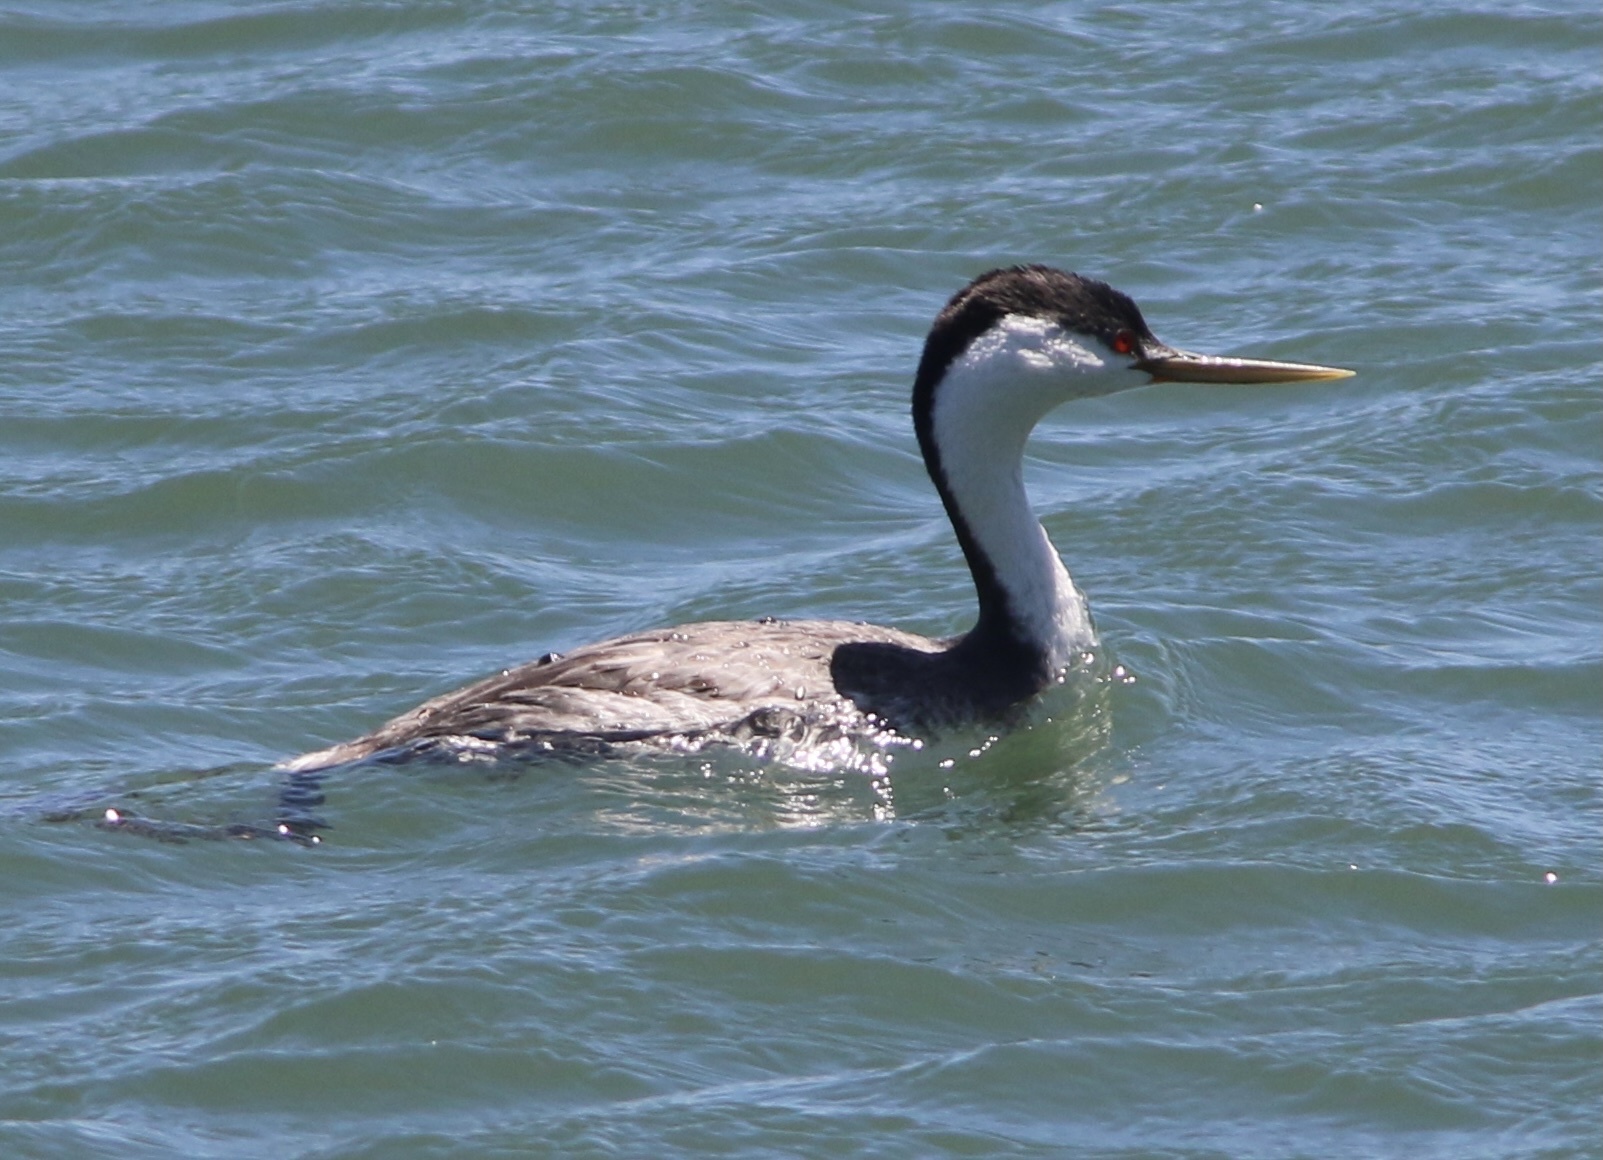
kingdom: Animalia
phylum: Chordata
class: Aves
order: Podicipediformes
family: Podicipedidae
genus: Aechmophorus
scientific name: Aechmophorus occidentalis
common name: Western grebe
